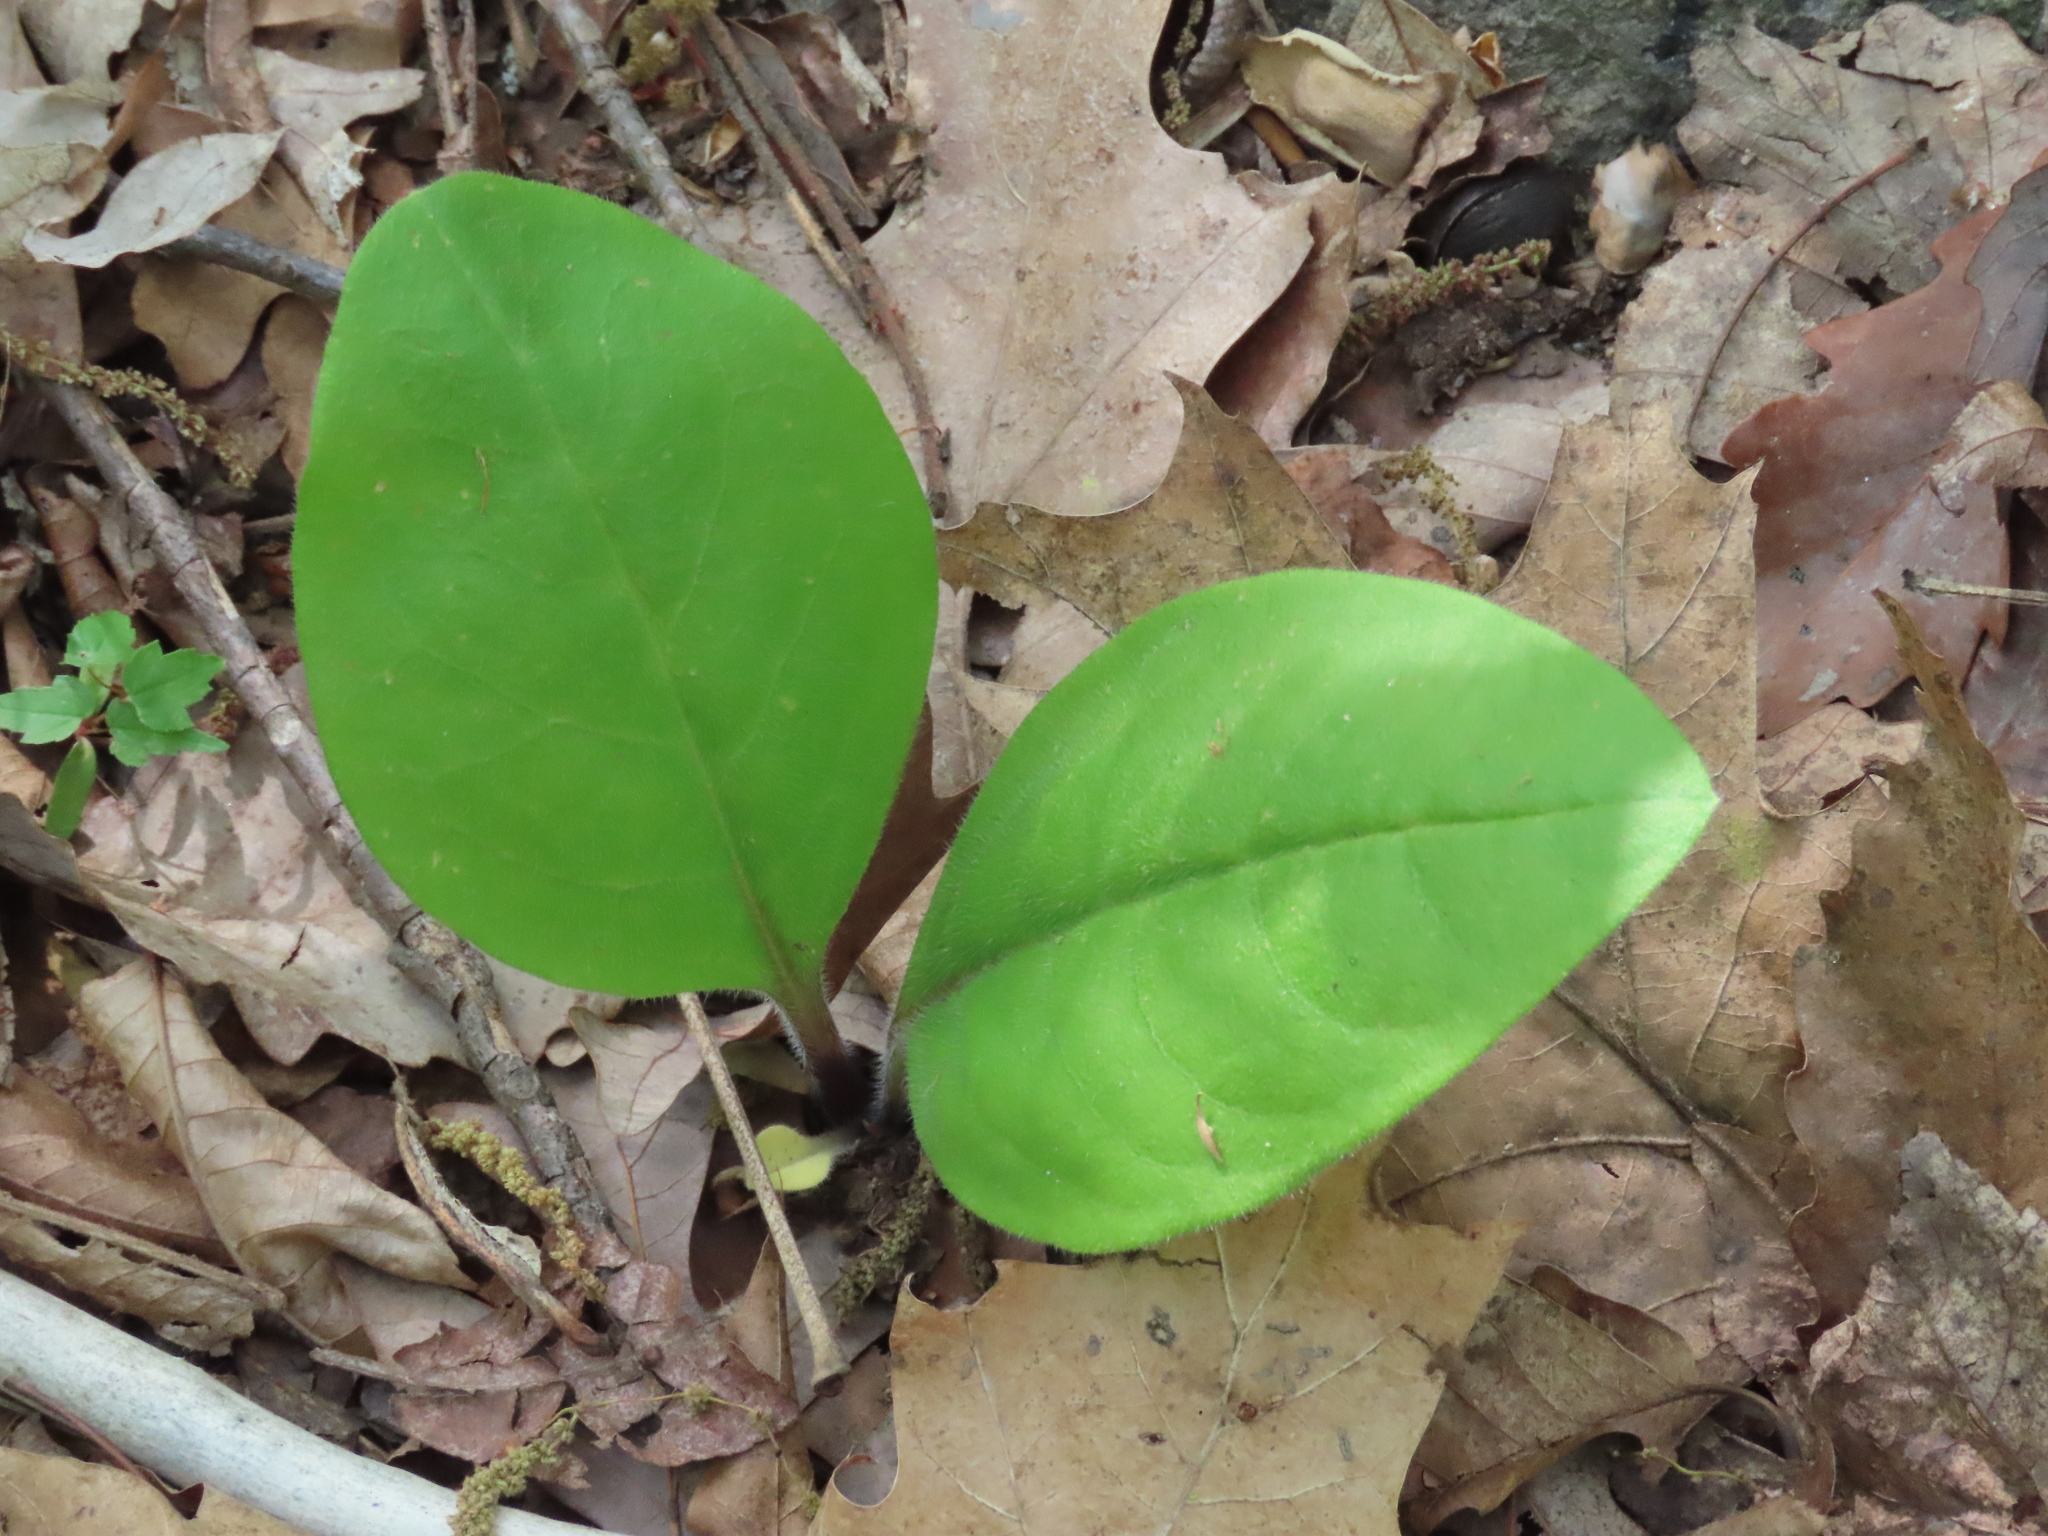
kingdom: Plantae
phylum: Tracheophyta
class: Magnoliopsida
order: Boraginales
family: Boraginaceae
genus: Andersonglossum
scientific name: Andersonglossum virginianum
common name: Wild comfrey
